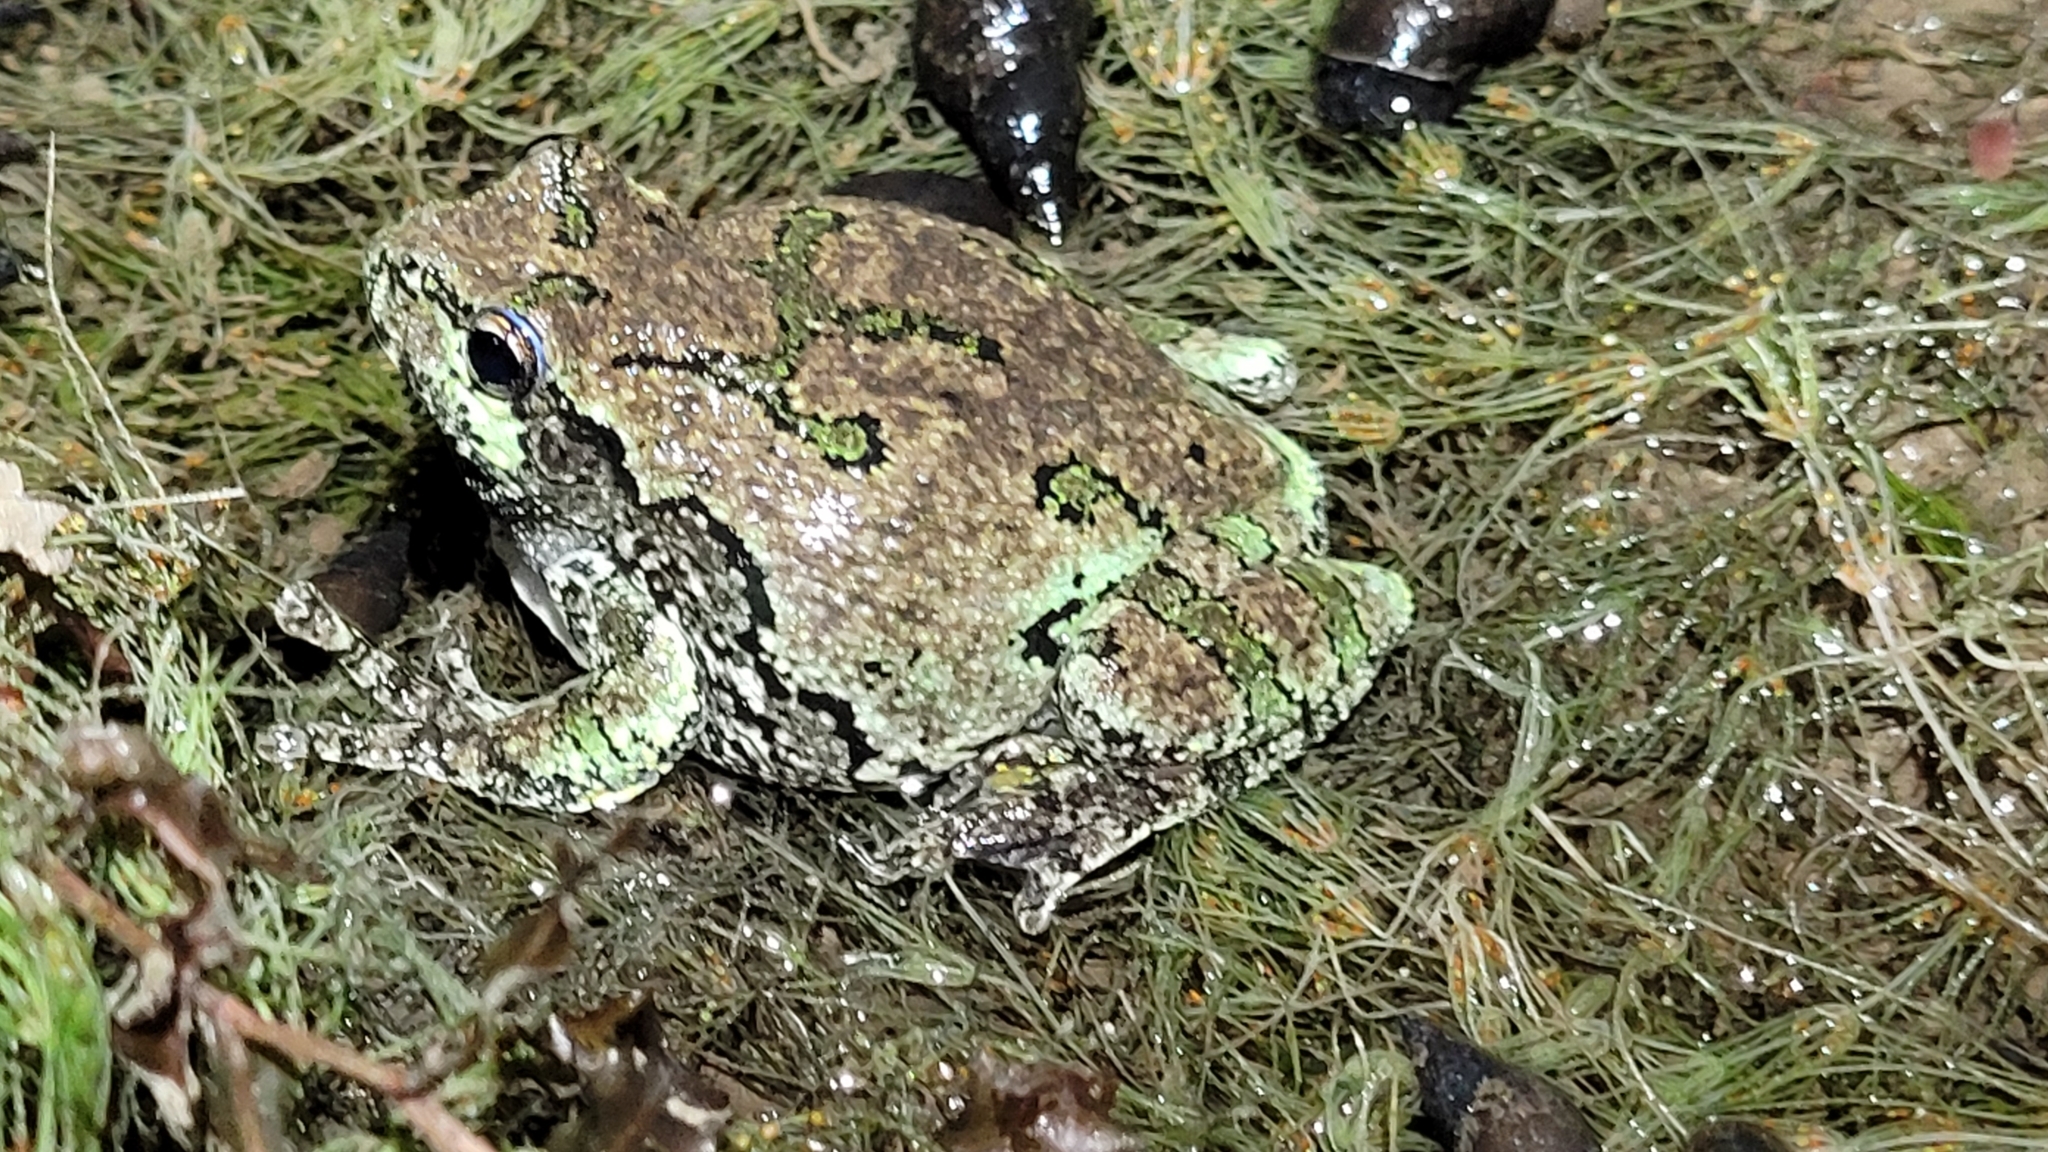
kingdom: Animalia
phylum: Chordata
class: Amphibia
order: Anura
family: Hylidae
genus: Dryophytes
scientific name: Dryophytes versicolor
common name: Gray treefrog
